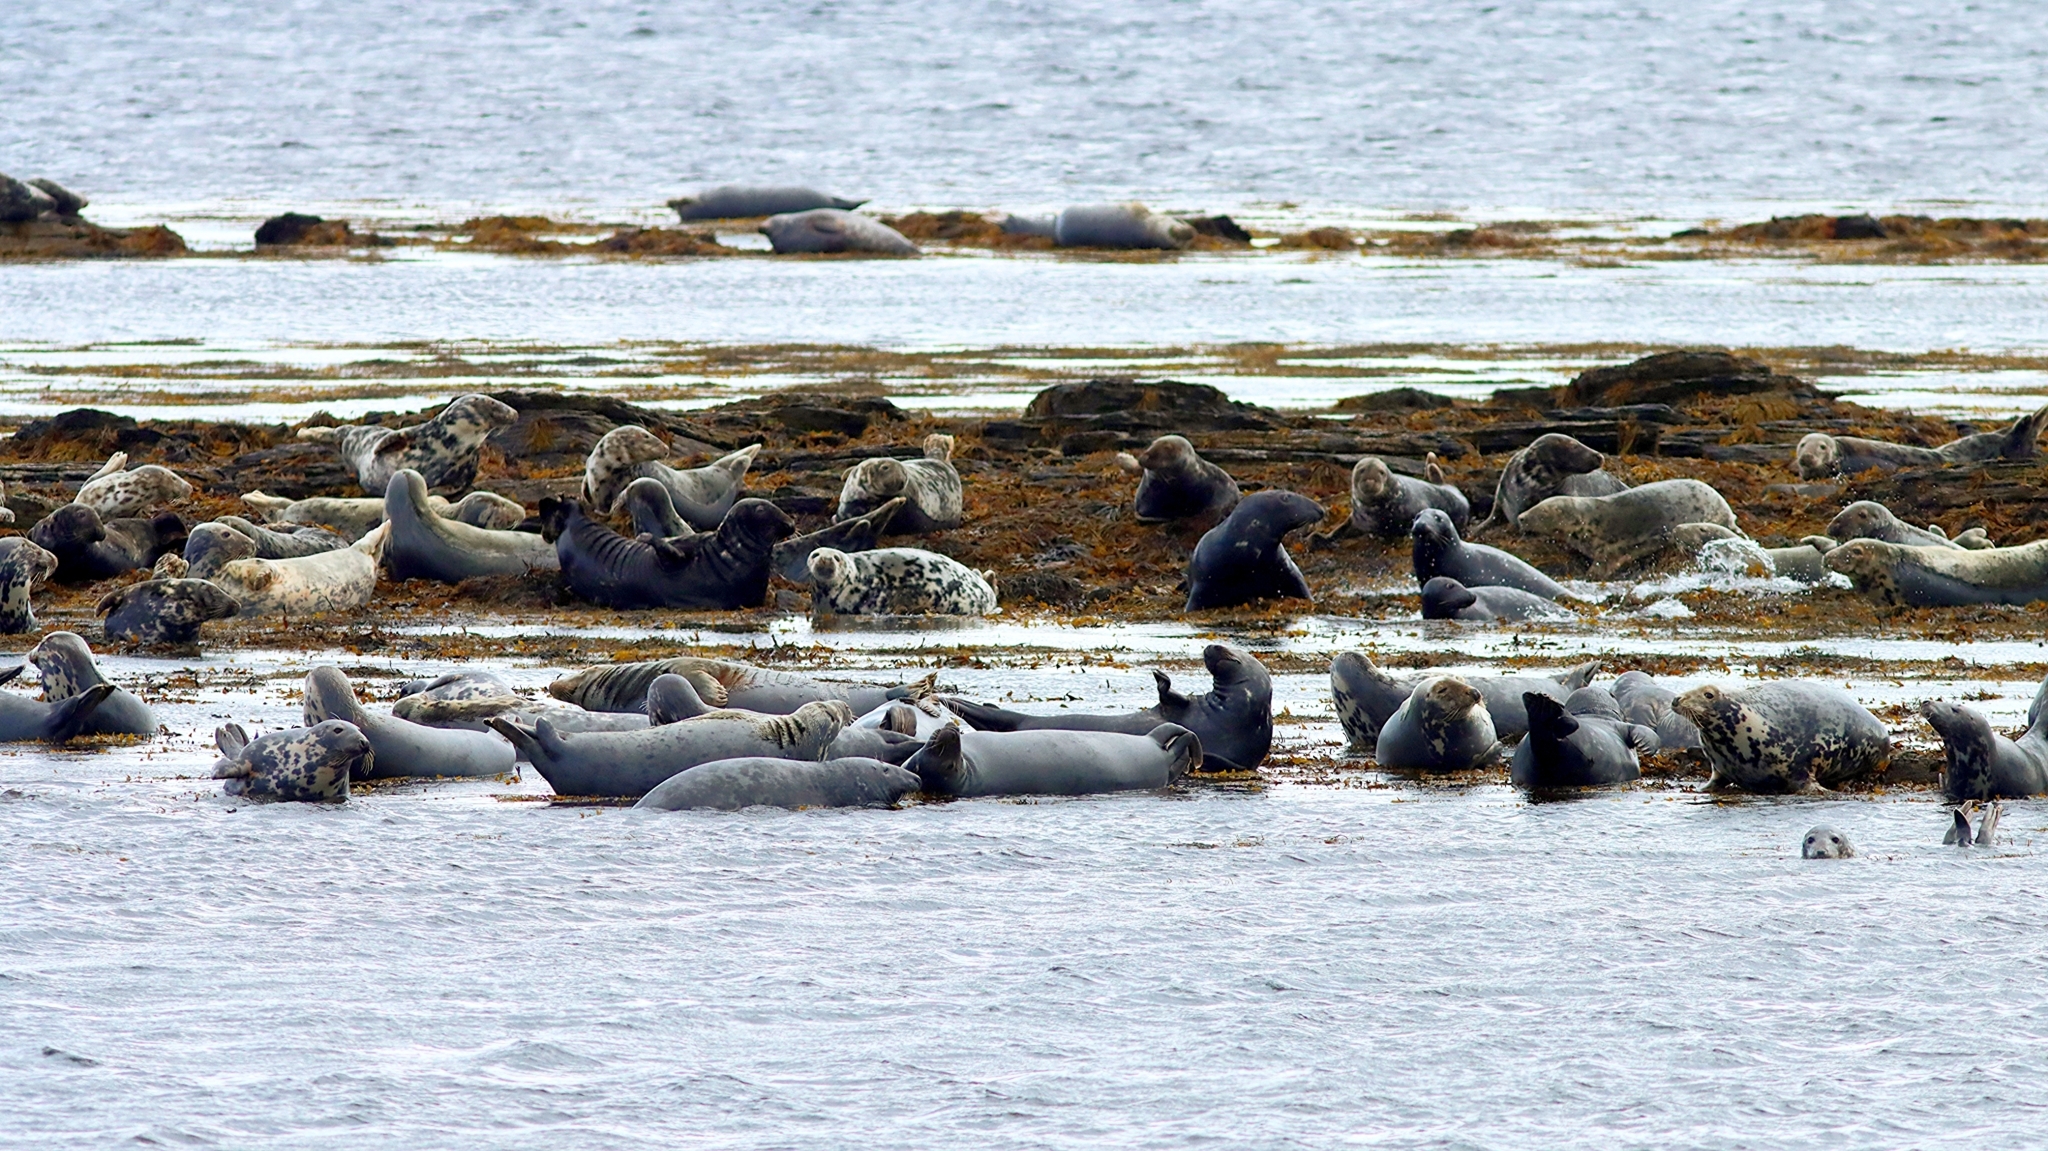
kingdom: Animalia
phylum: Chordata
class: Mammalia
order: Carnivora
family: Phocidae
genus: Halichoerus
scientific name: Halichoerus grypus
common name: Grey seal
